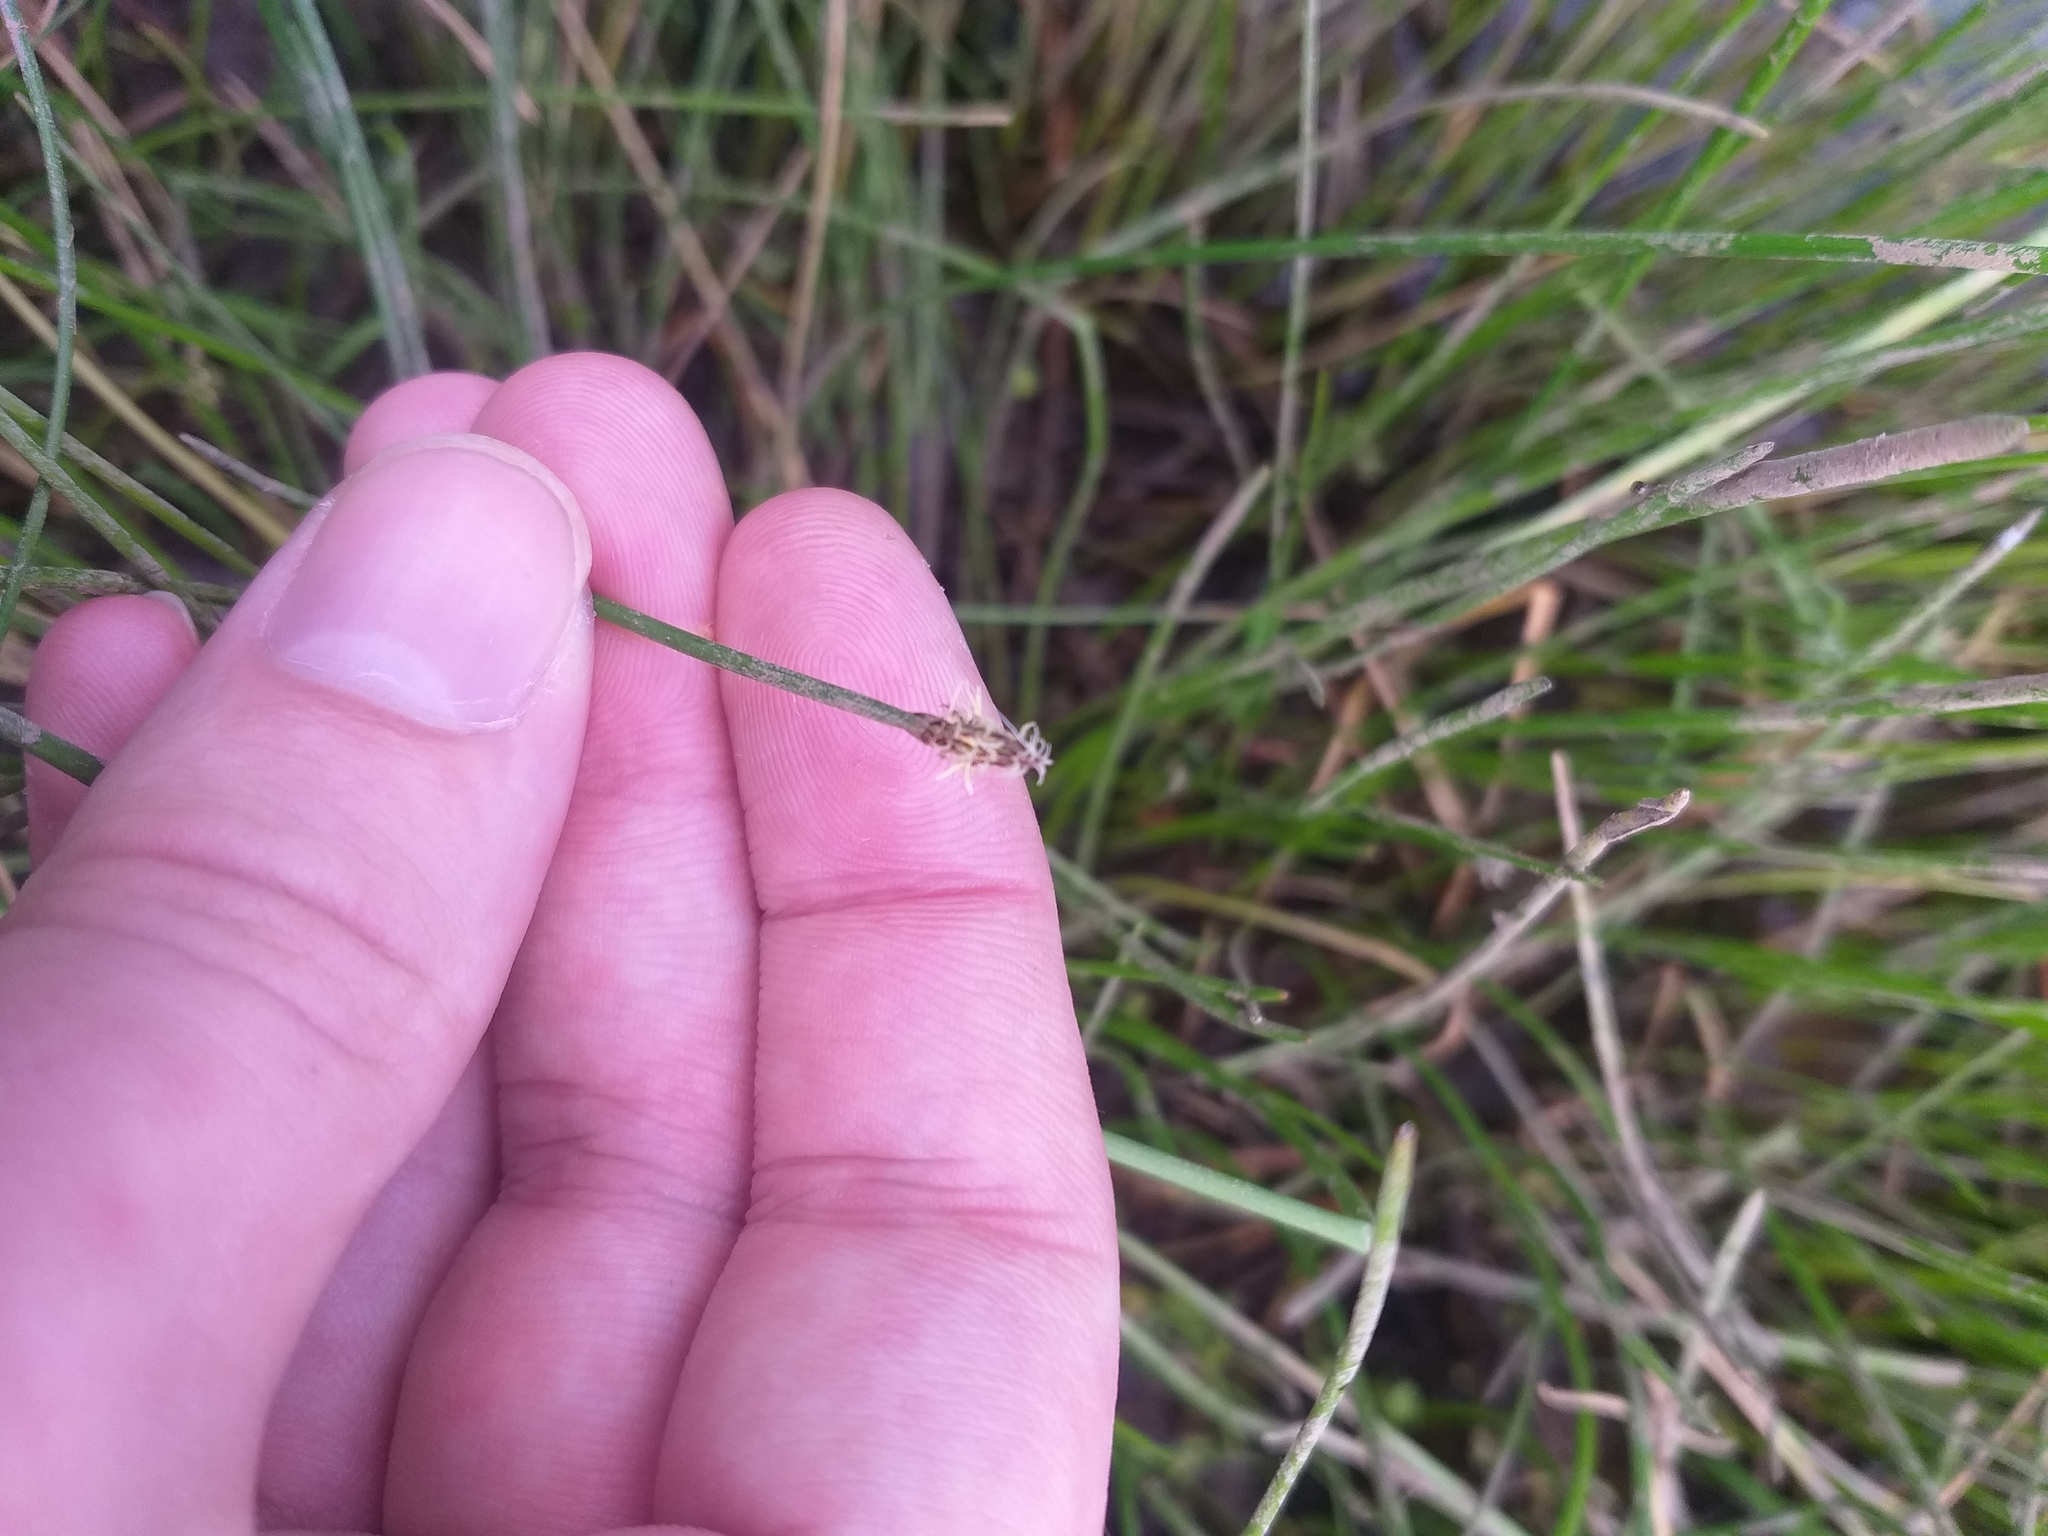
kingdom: Plantae
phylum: Tracheophyta
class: Liliopsida
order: Poales
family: Cyperaceae
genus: Eleocharis
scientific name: Eleocharis palustris
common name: Common spike-rush
